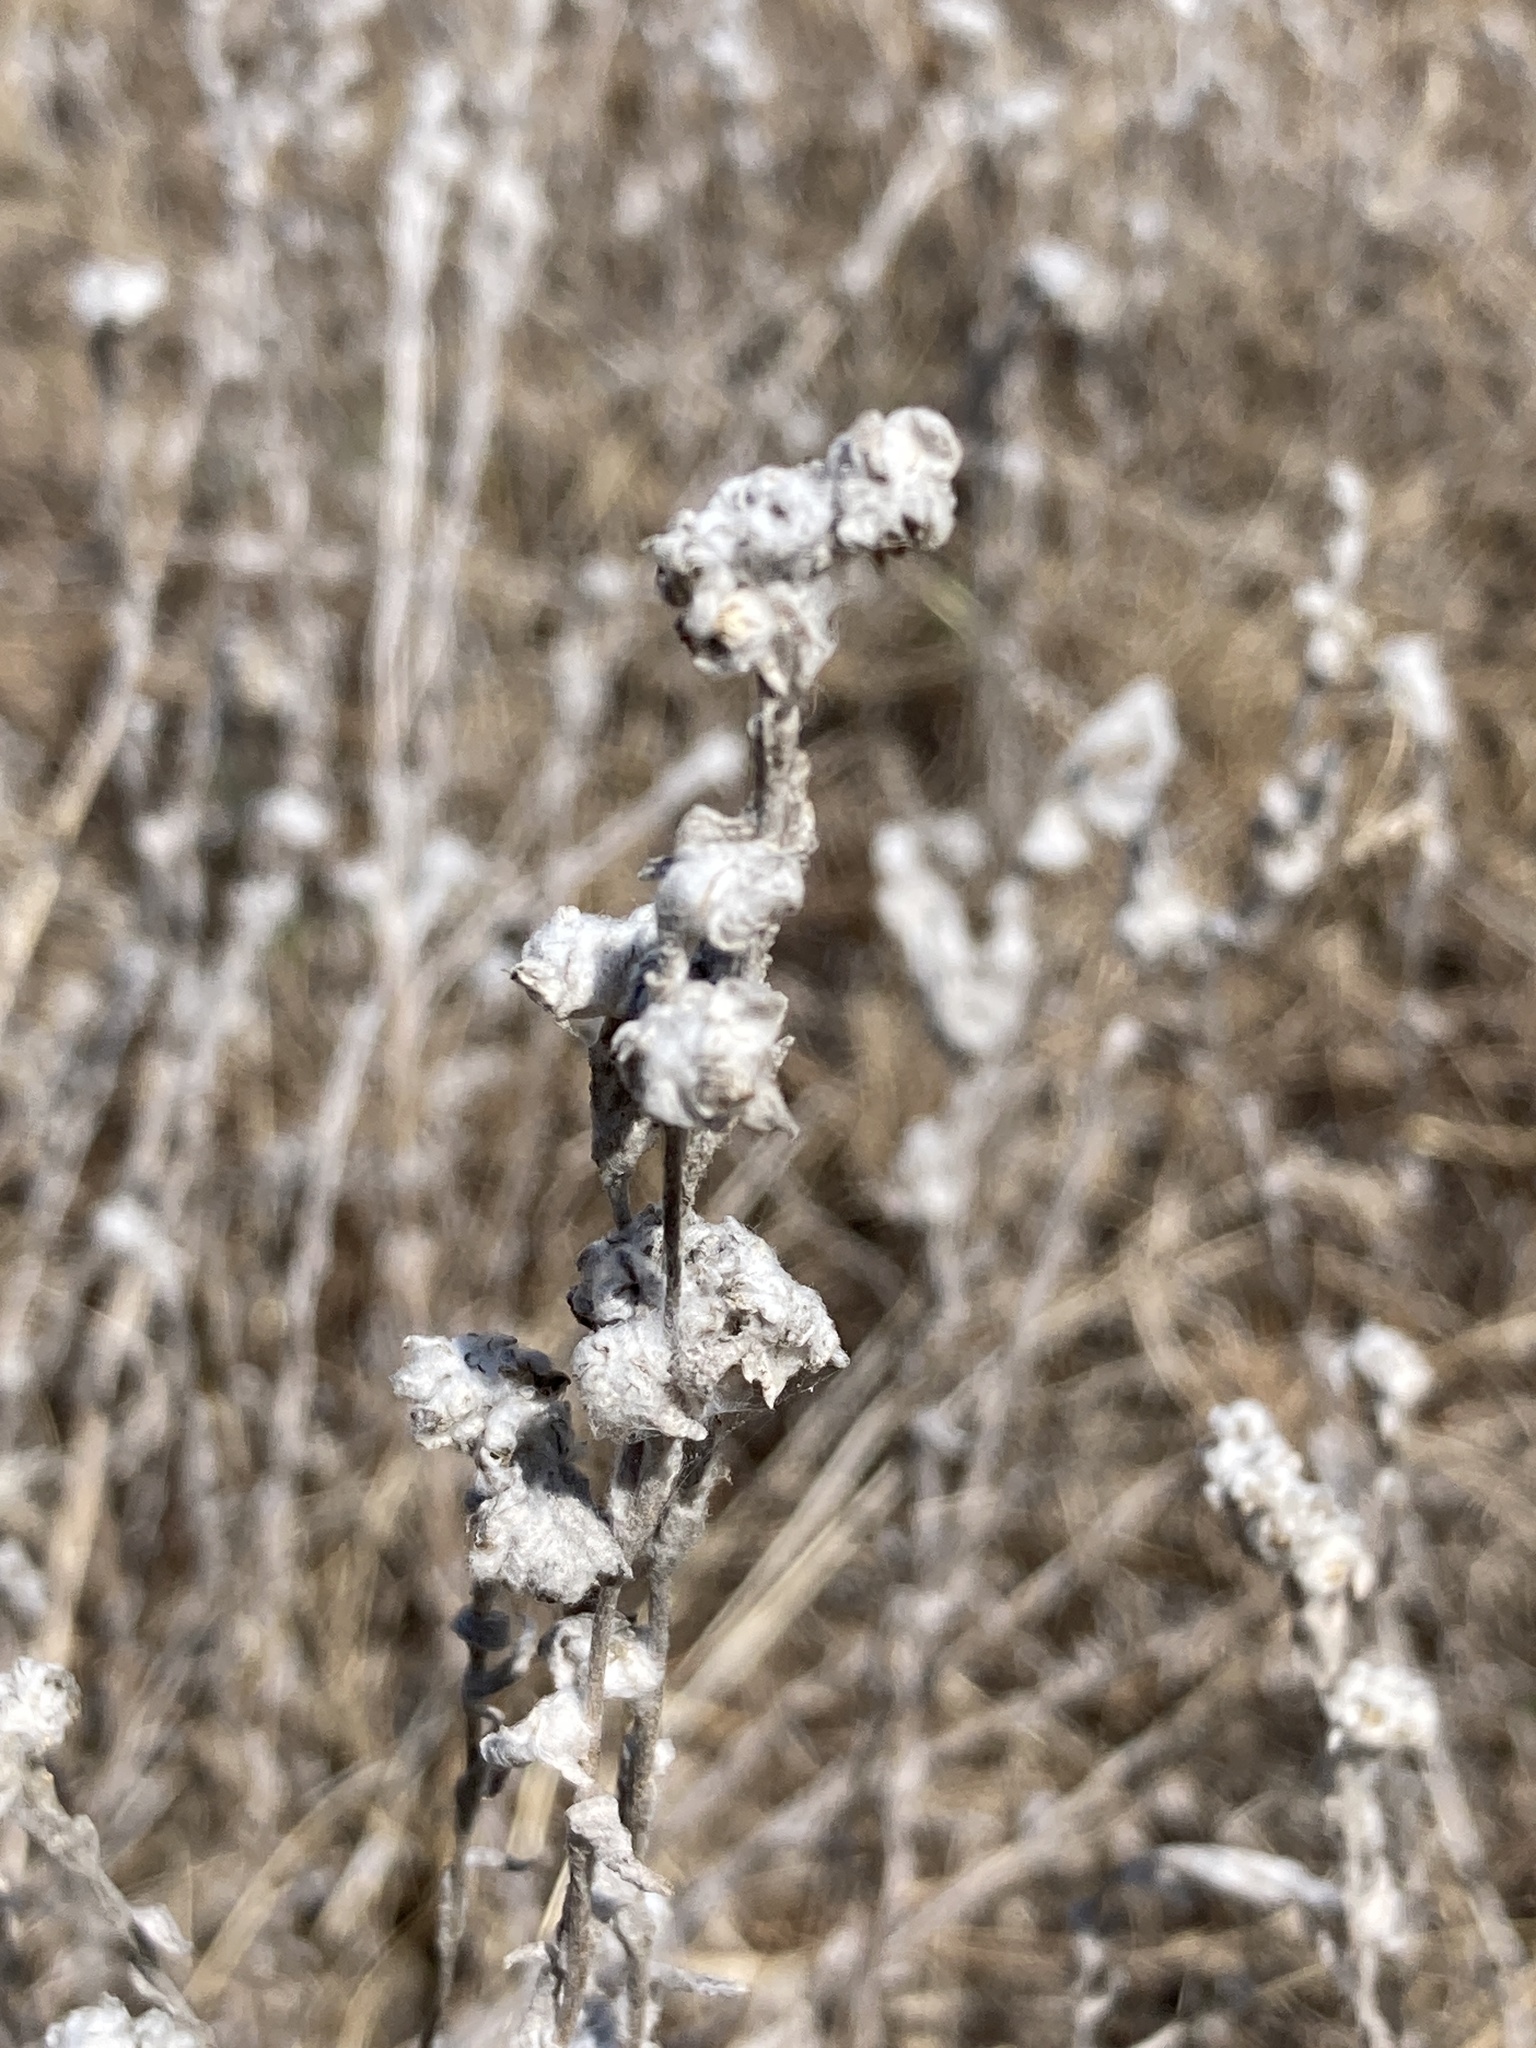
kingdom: Plantae
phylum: Tracheophyta
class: Magnoliopsida
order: Asterales
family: Asteraceae
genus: Filago
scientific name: Filago arvensis
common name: Field cudweed
